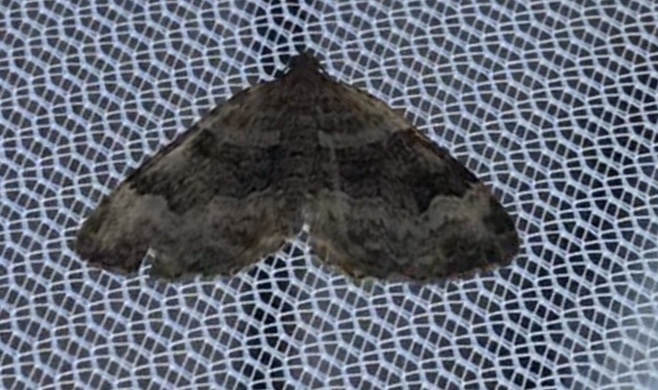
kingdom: Animalia
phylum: Arthropoda
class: Insecta
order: Lepidoptera
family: Geometridae
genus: Xanthorhoe
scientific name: Xanthorhoe lacustrata
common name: Toothed brown carpet
